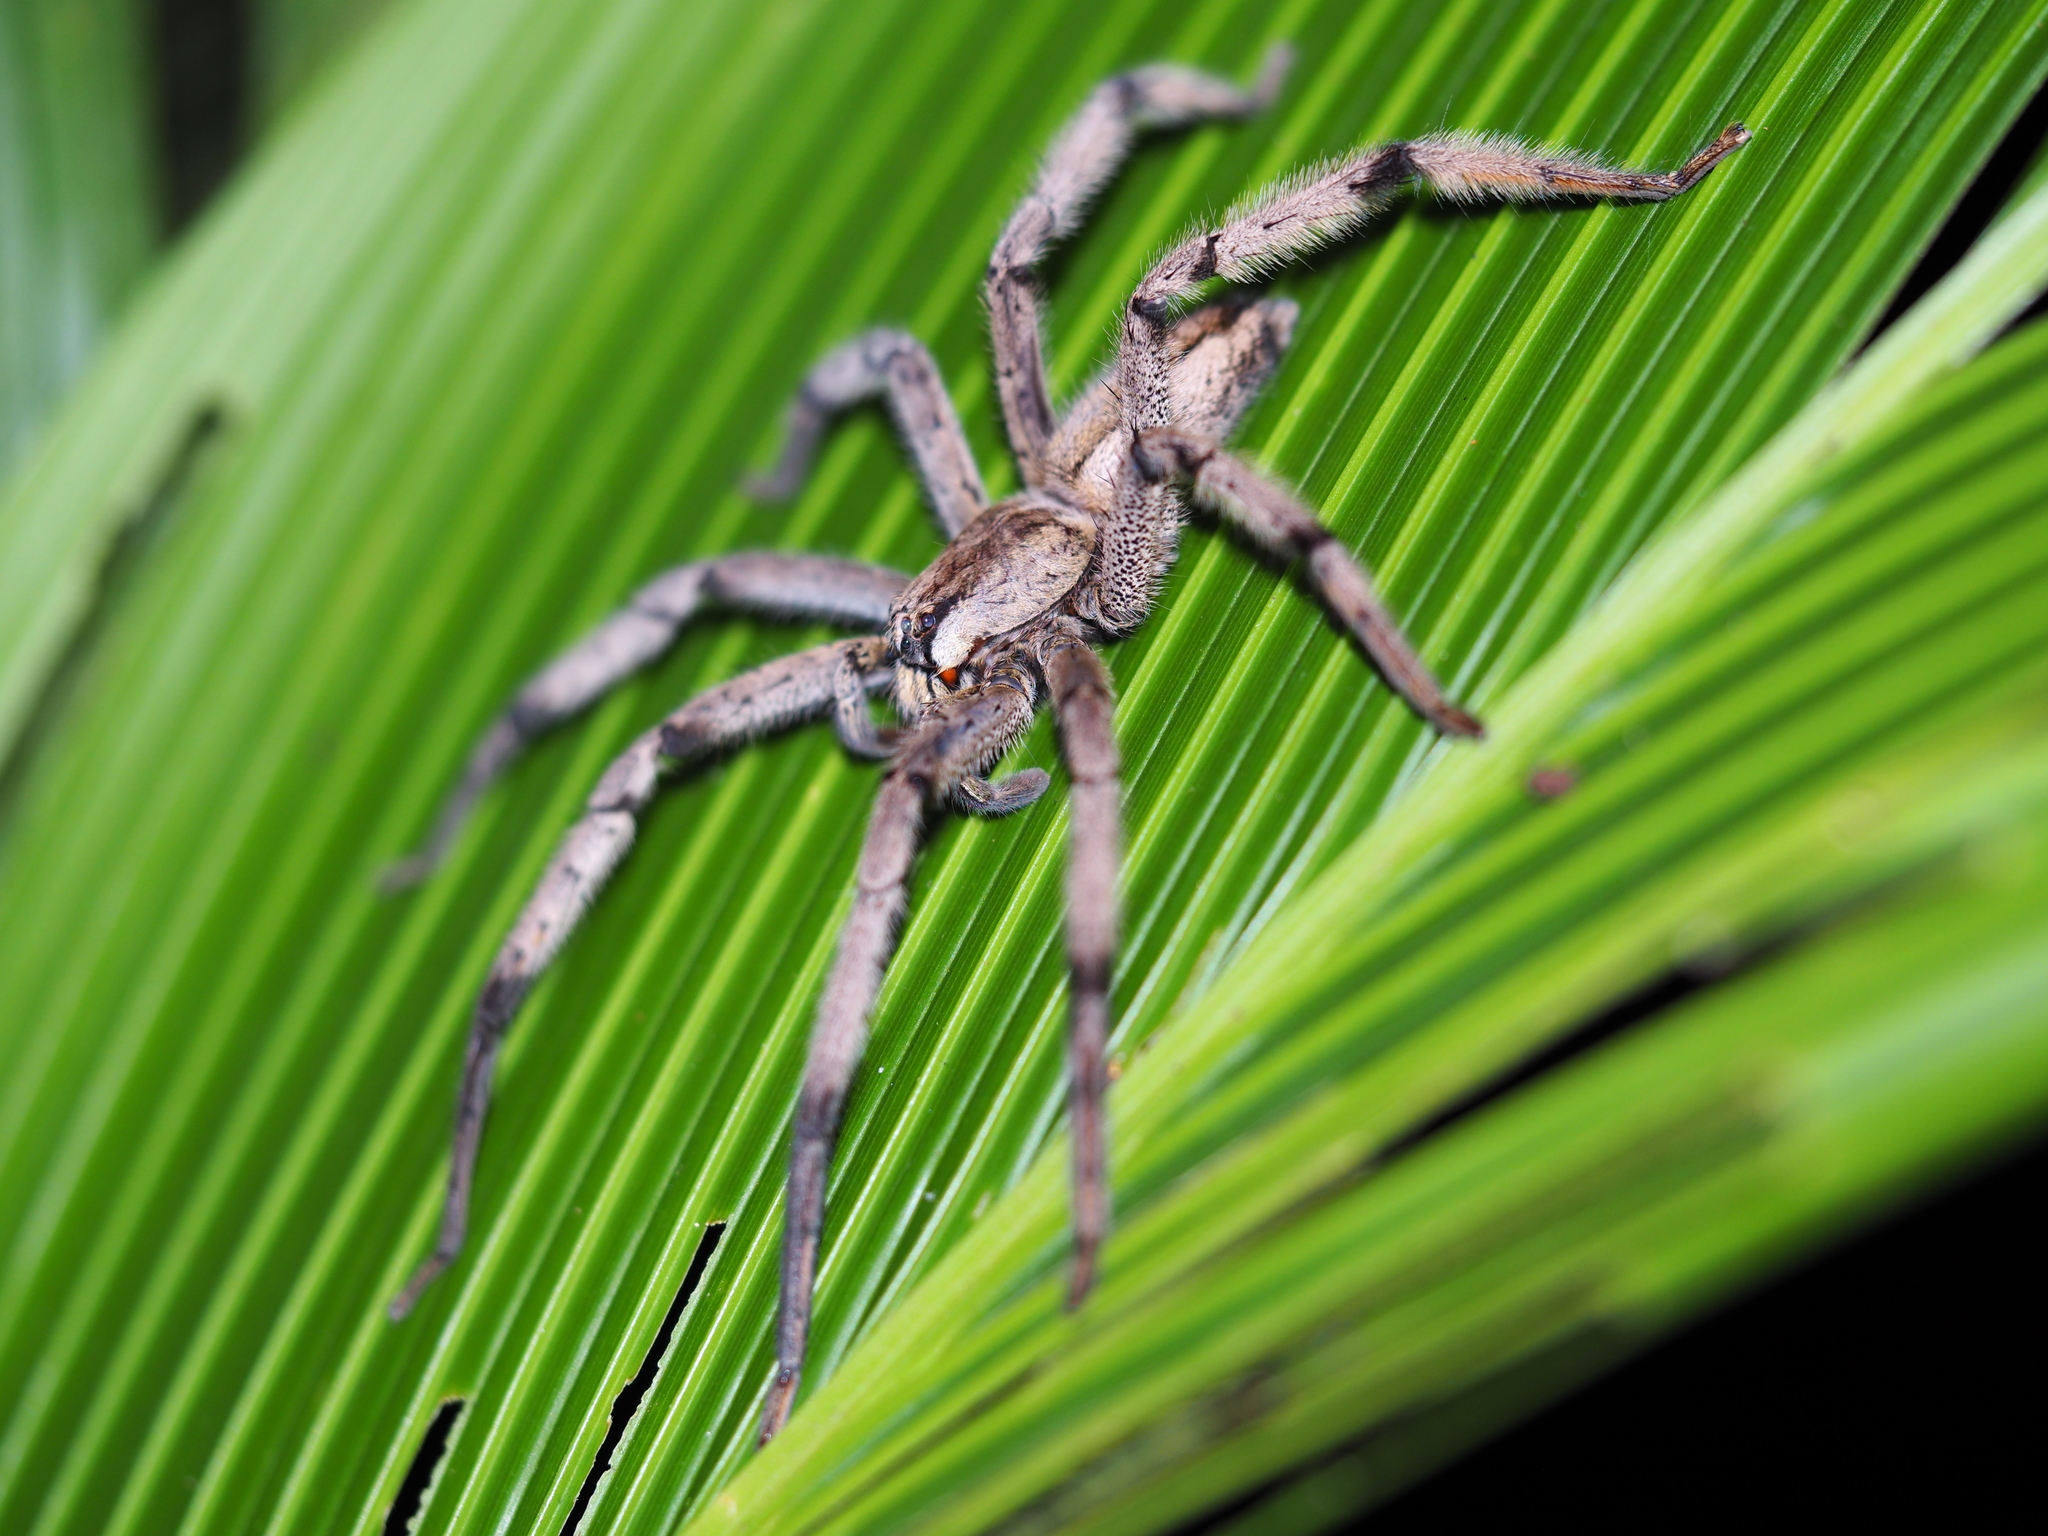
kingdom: Animalia
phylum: Arthropoda
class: Arachnida
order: Araneae
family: Trechaleidae
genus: Cupiennius
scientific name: Cupiennius getazi
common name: Wandering spiders
